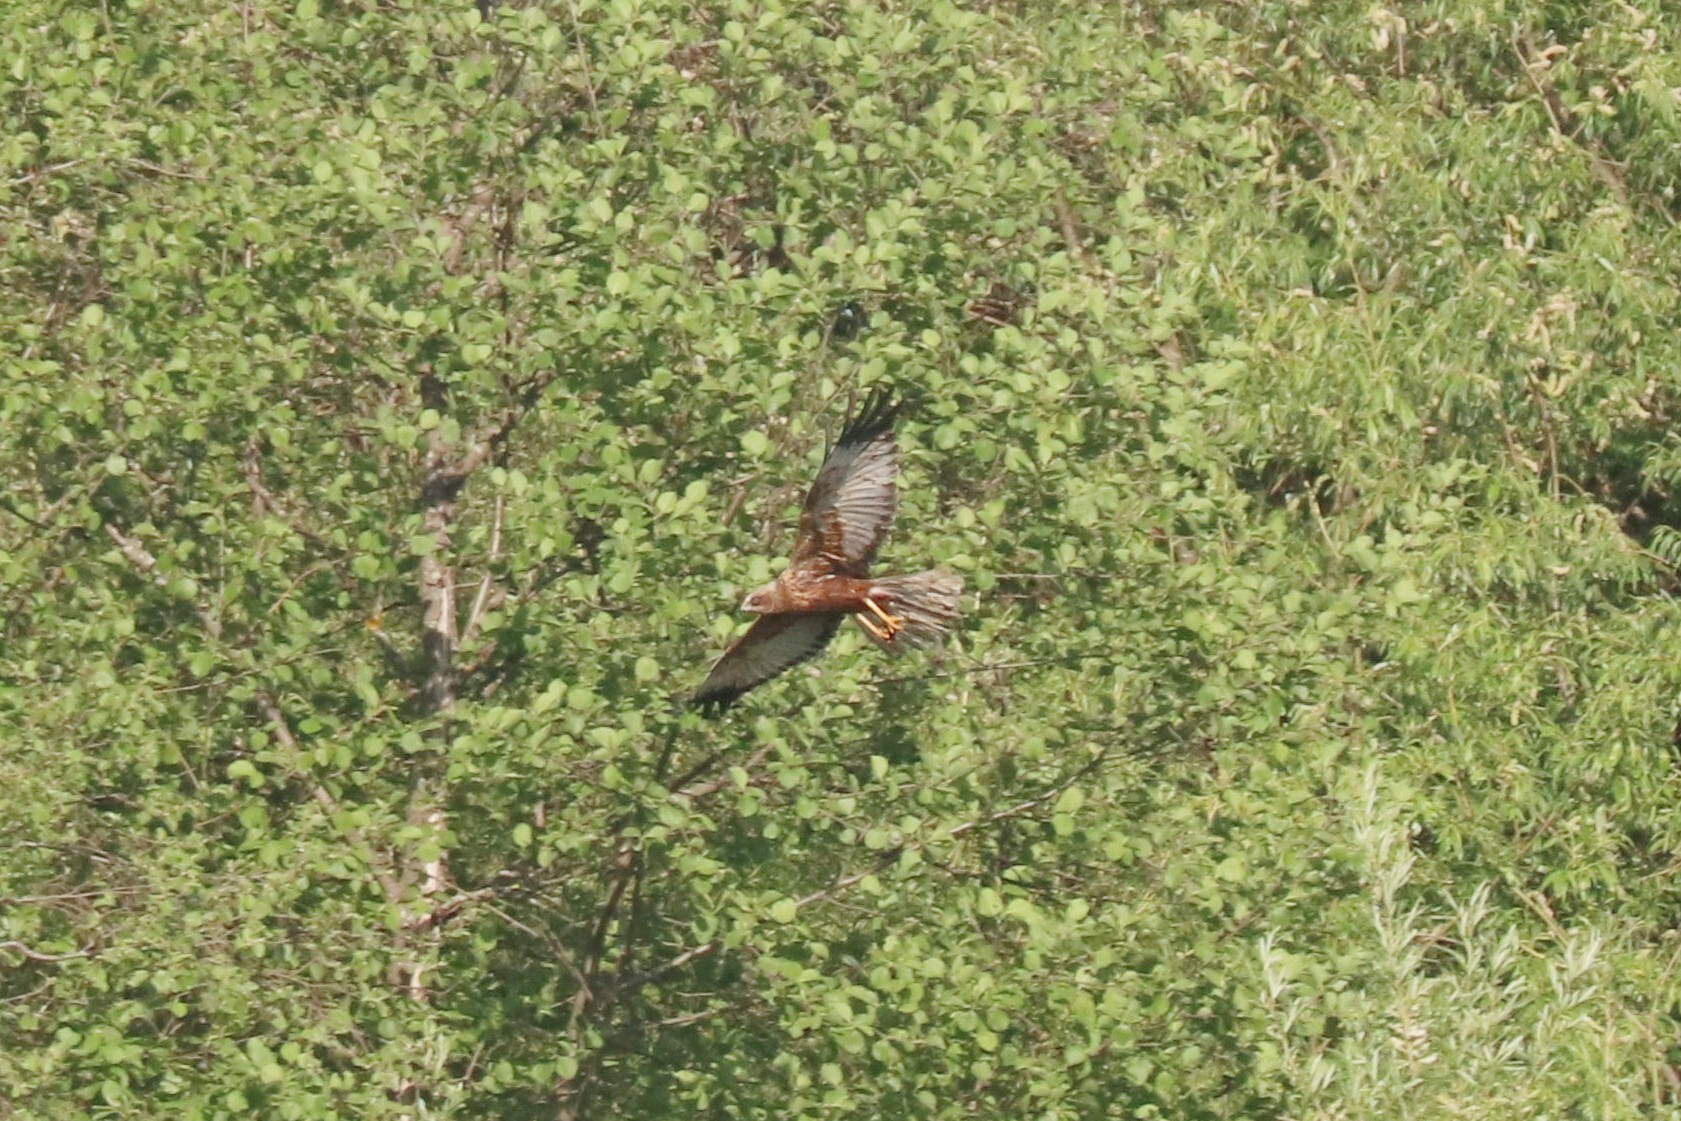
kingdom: Animalia
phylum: Chordata
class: Aves
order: Accipitriformes
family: Accipitridae
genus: Circus
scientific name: Circus aeruginosus
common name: Western marsh harrier
